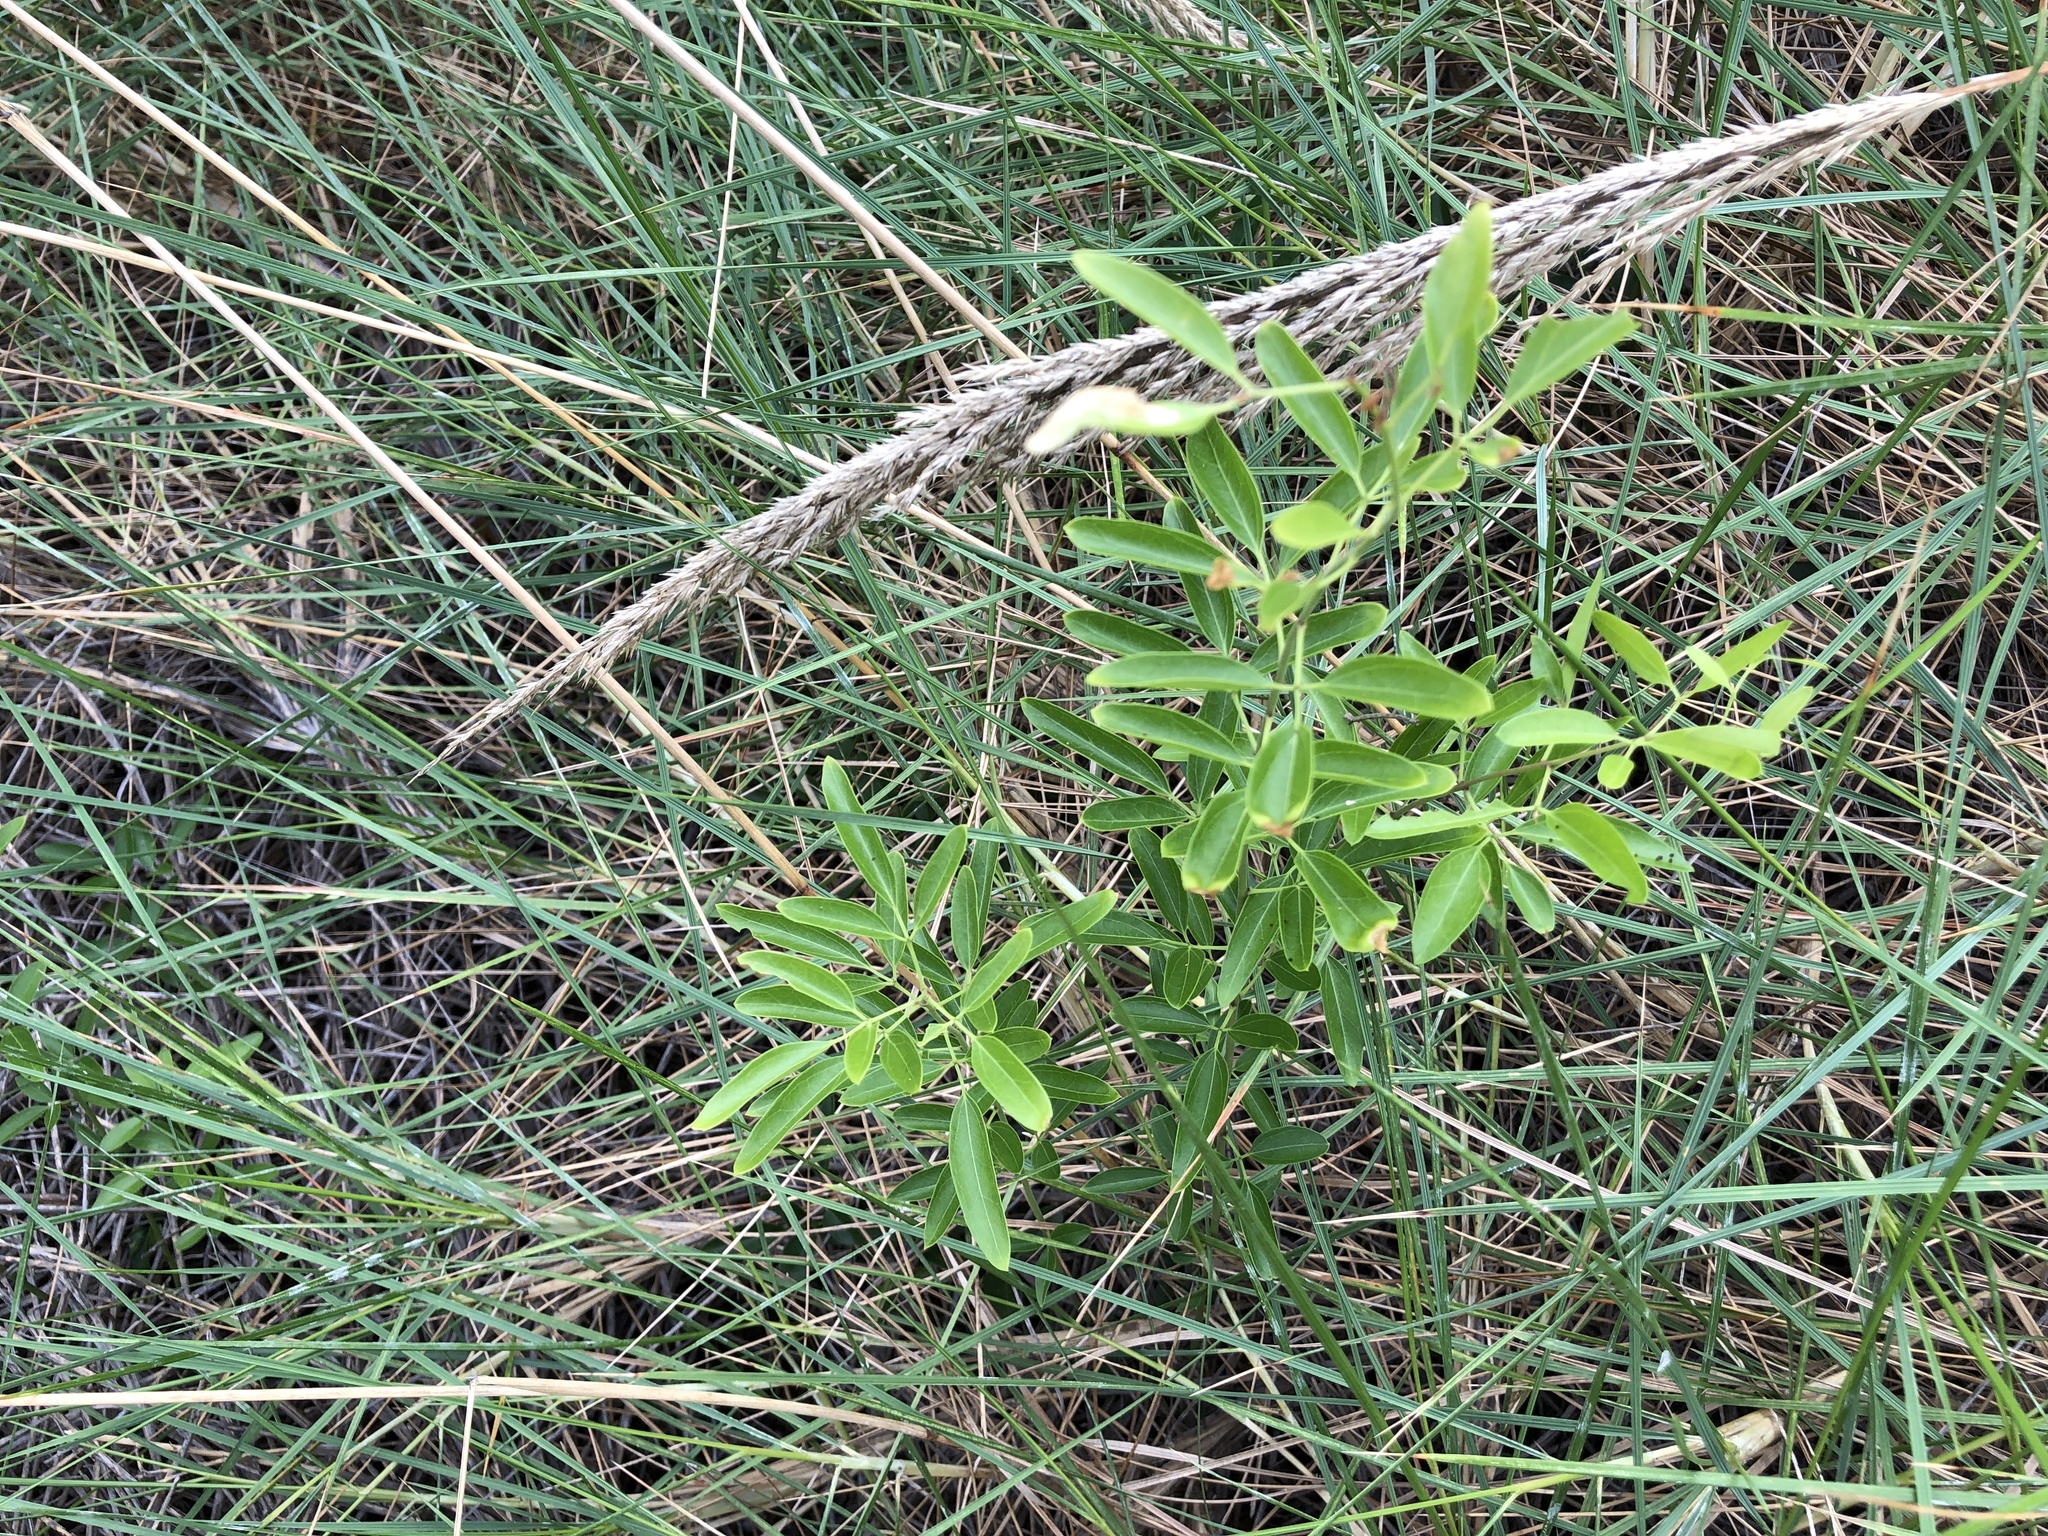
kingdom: Plantae
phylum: Tracheophyta
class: Magnoliopsida
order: Lamiales
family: Oleaceae
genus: Jasminum
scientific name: Jasminum didymum
